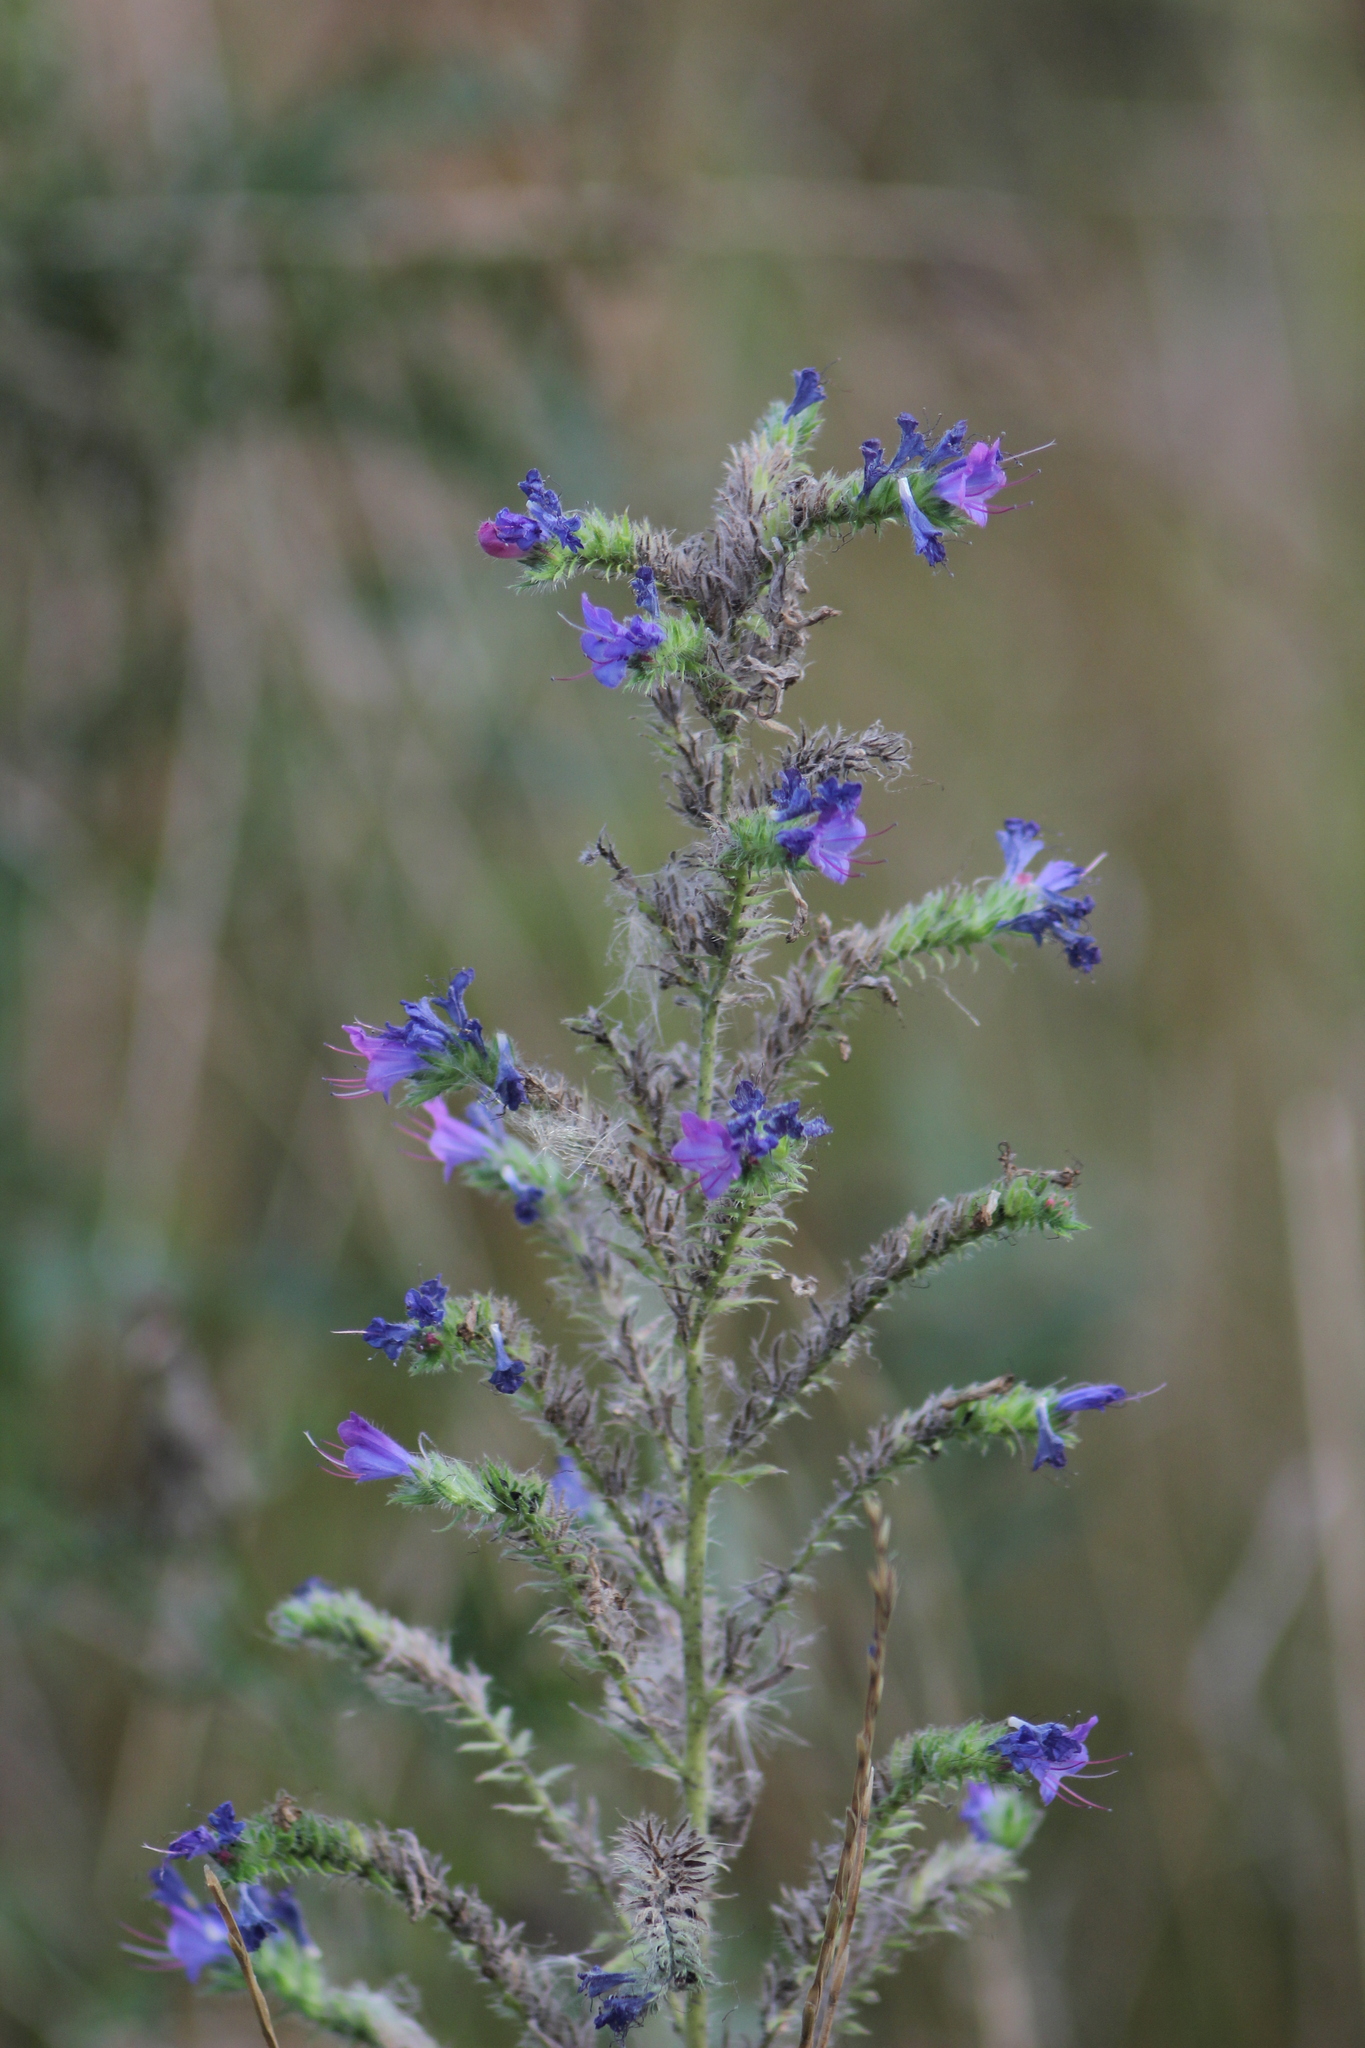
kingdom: Plantae
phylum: Tracheophyta
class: Magnoliopsida
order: Boraginales
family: Boraginaceae
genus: Echium
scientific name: Echium vulgare
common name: Common viper's bugloss
